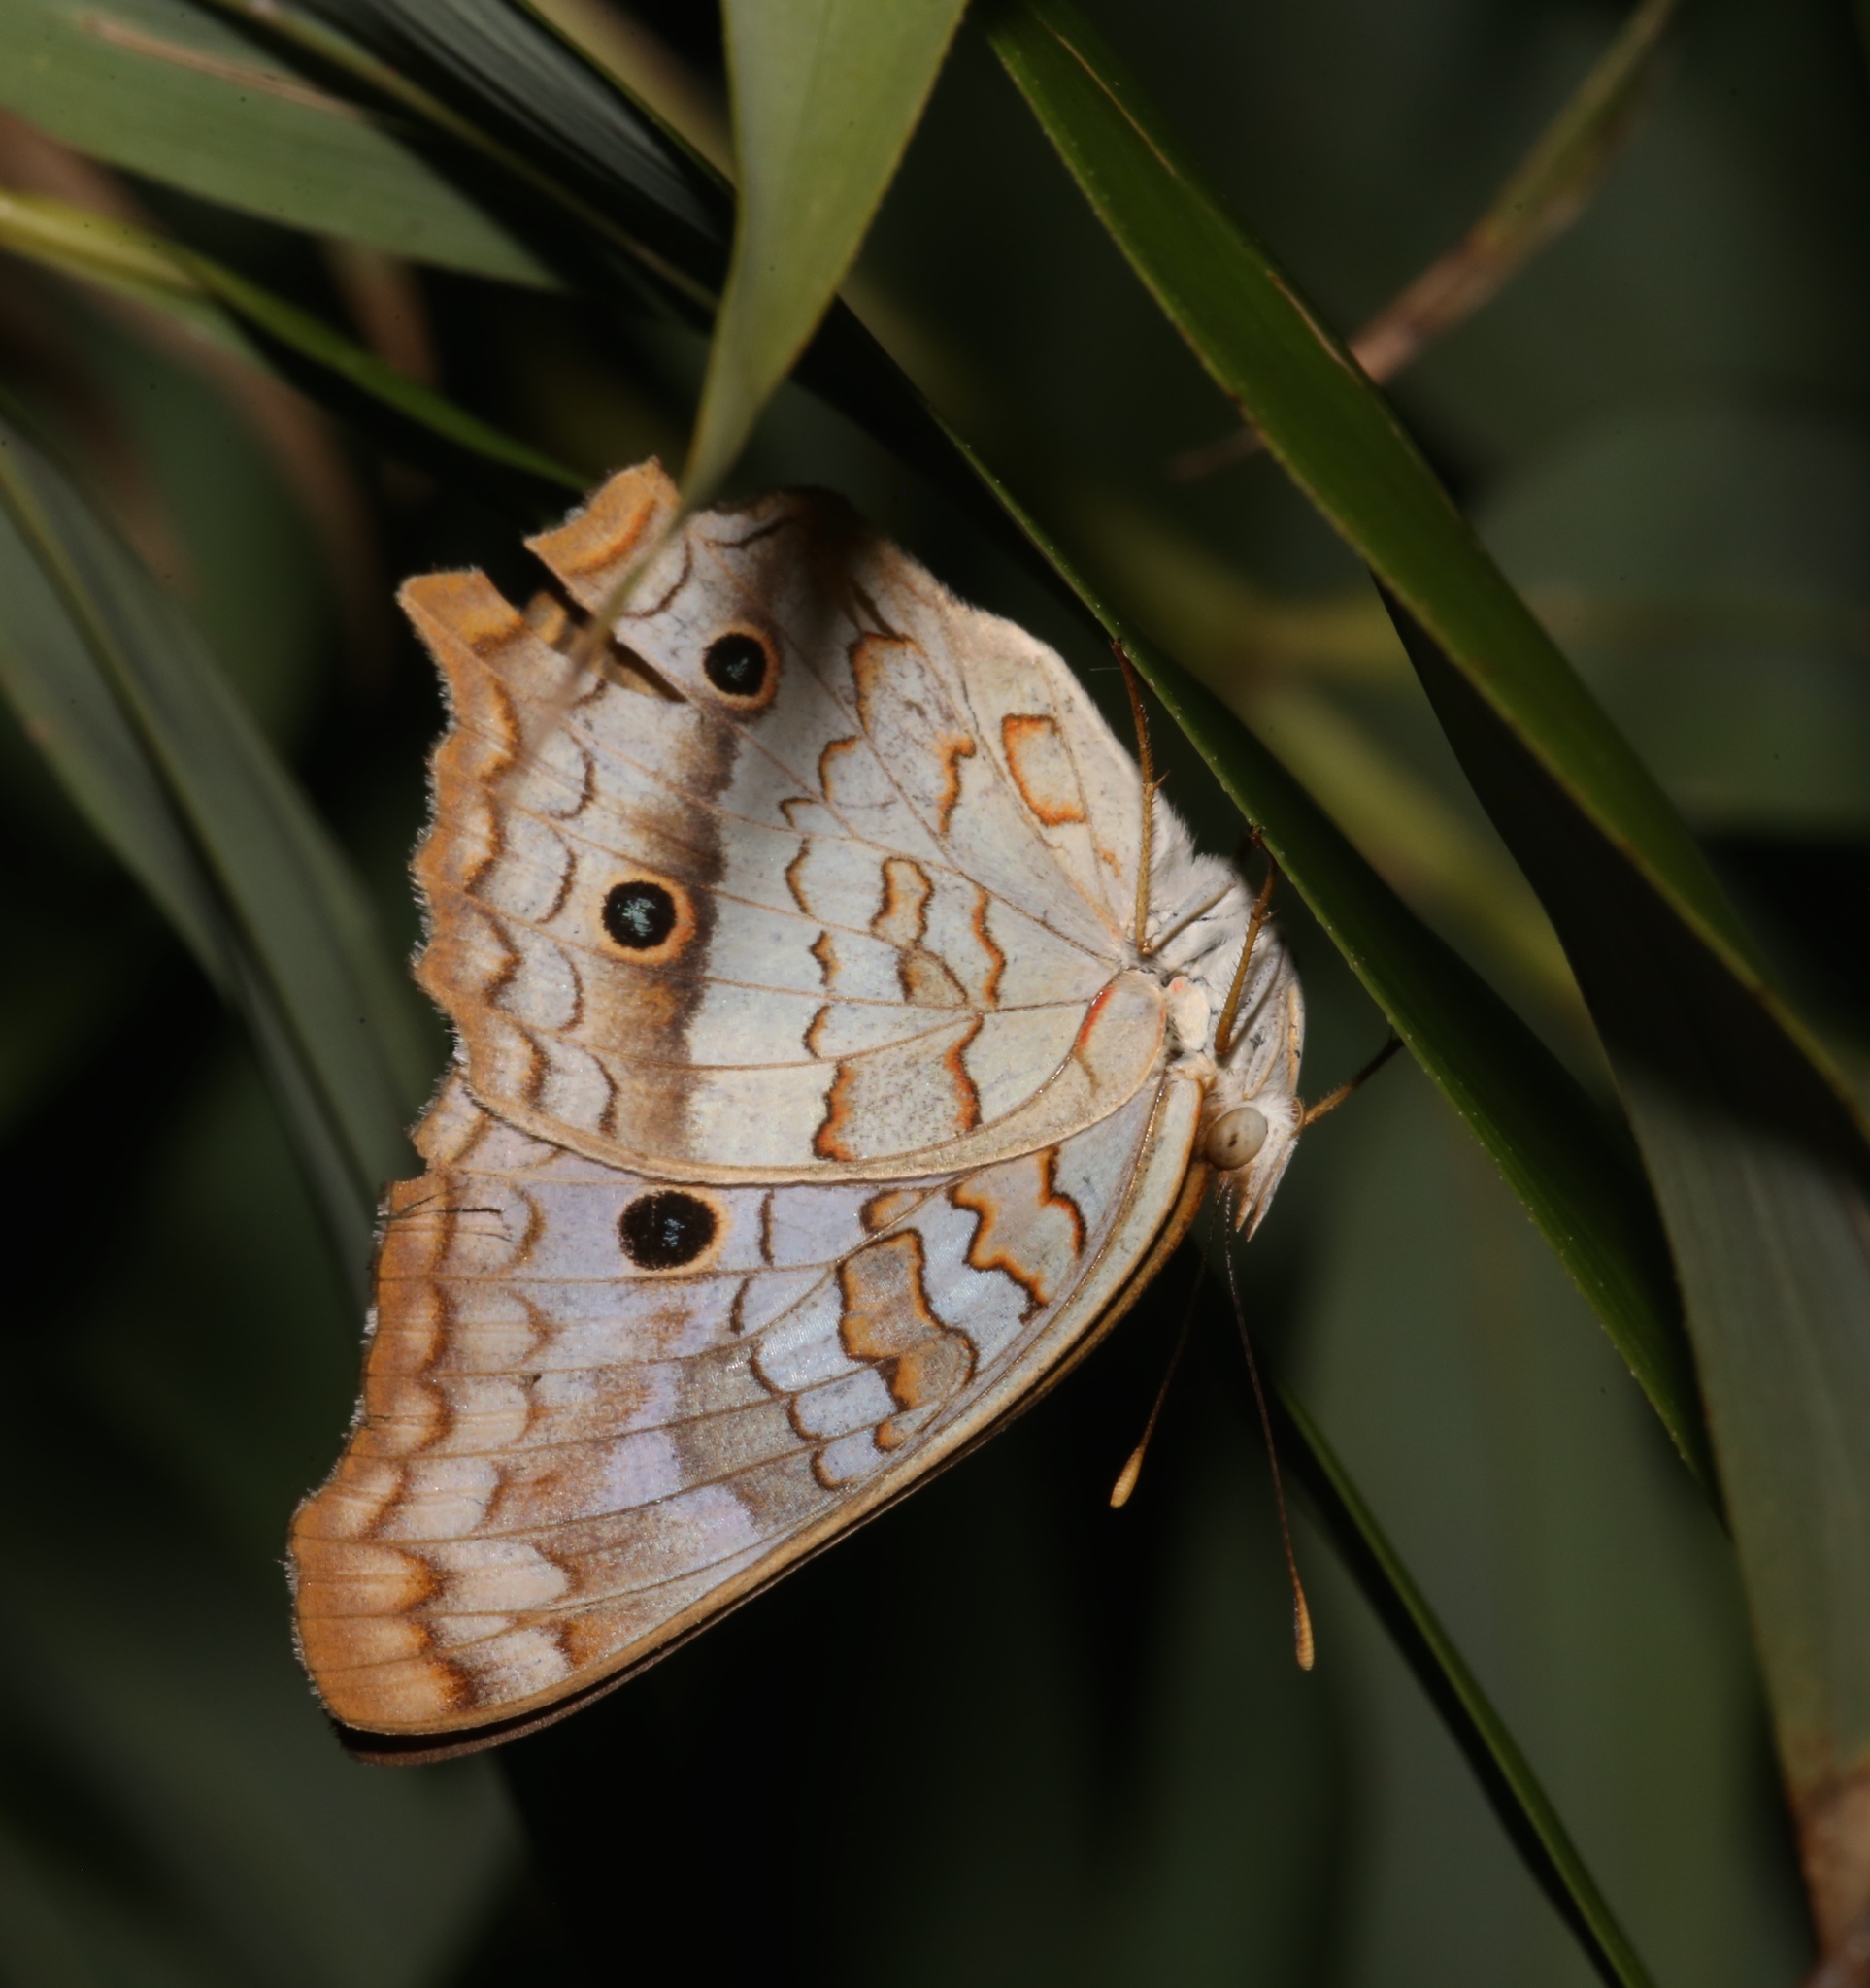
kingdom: Animalia
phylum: Arthropoda
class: Insecta
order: Lepidoptera
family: Nymphalidae
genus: Anartia
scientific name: Anartia jatrophae
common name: White peacock
